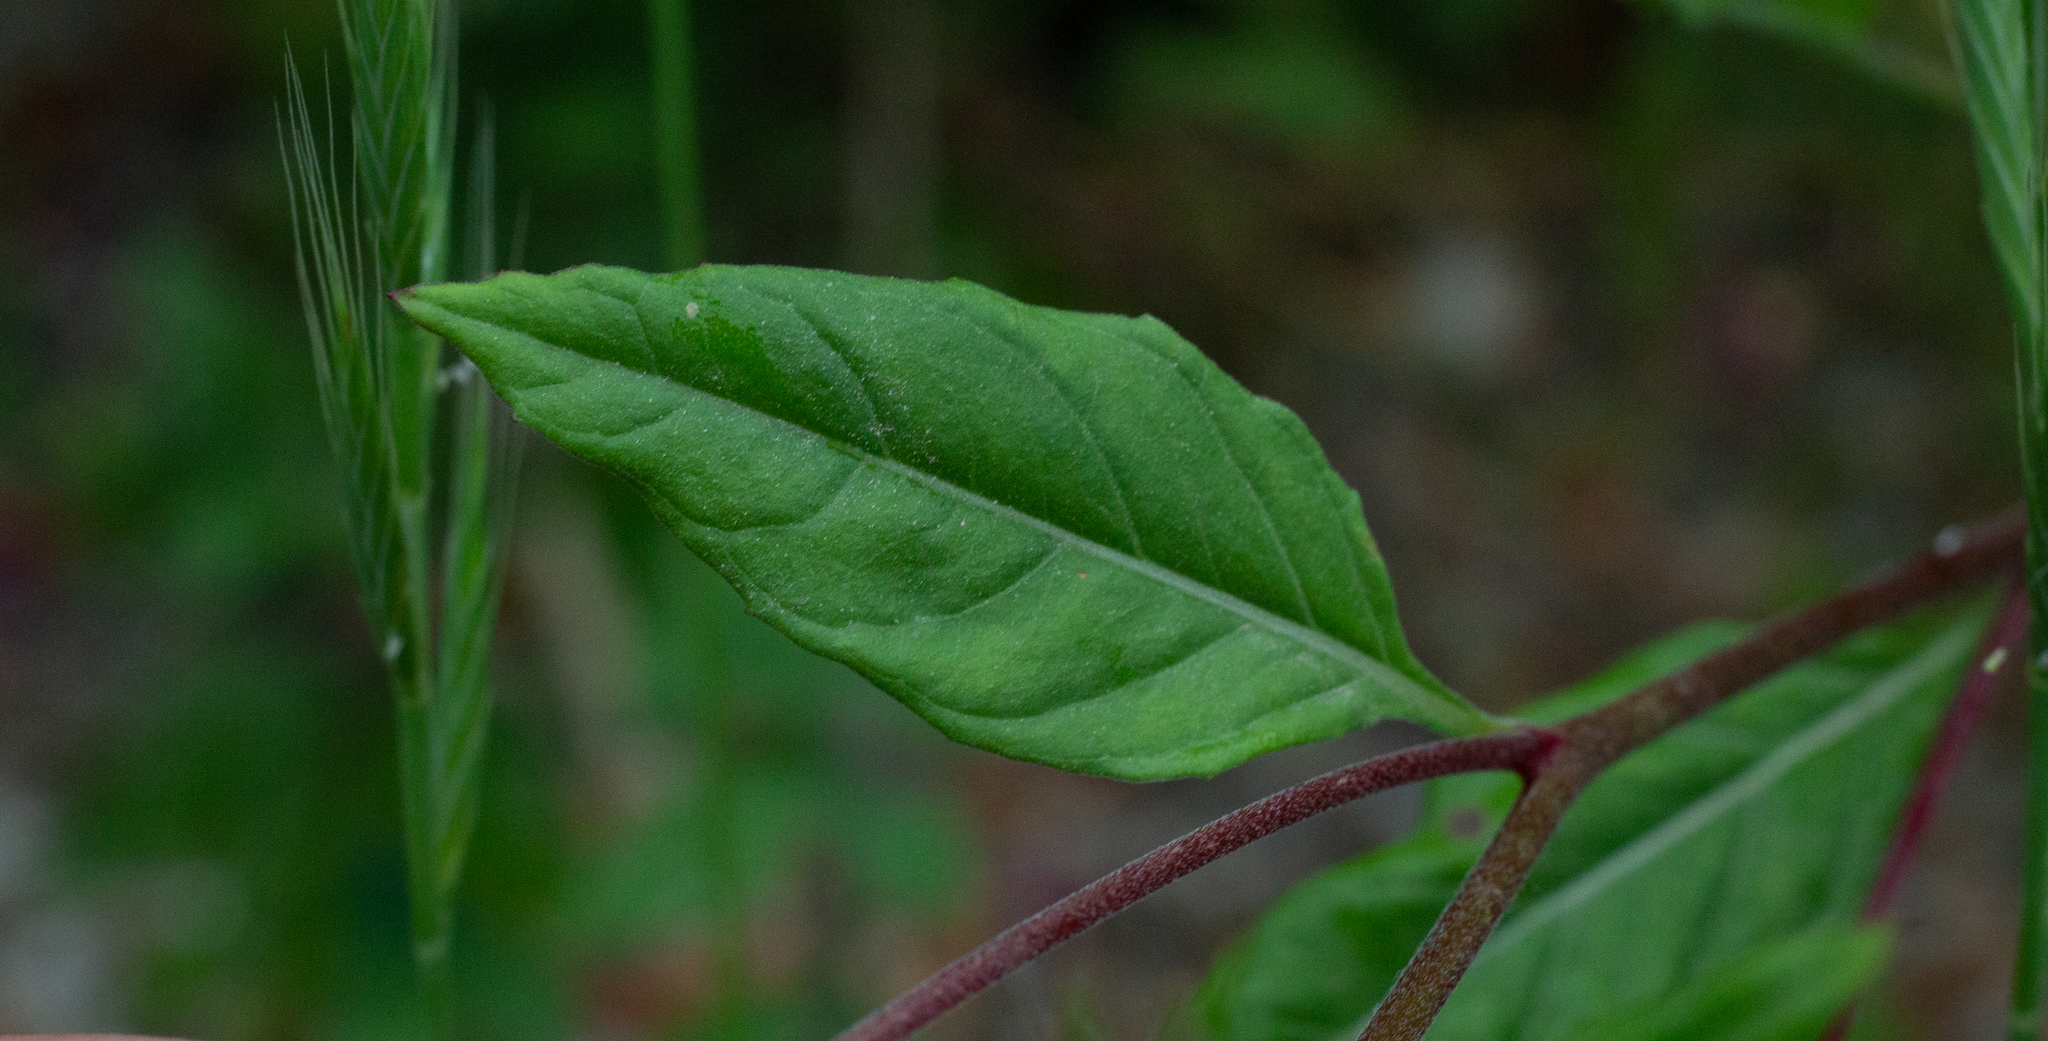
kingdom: Plantae
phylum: Tracheophyta
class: Magnoliopsida
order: Myrtales
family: Onagraceae
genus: Oenothera
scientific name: Oenothera rosea
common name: Rosy evening-primrose
